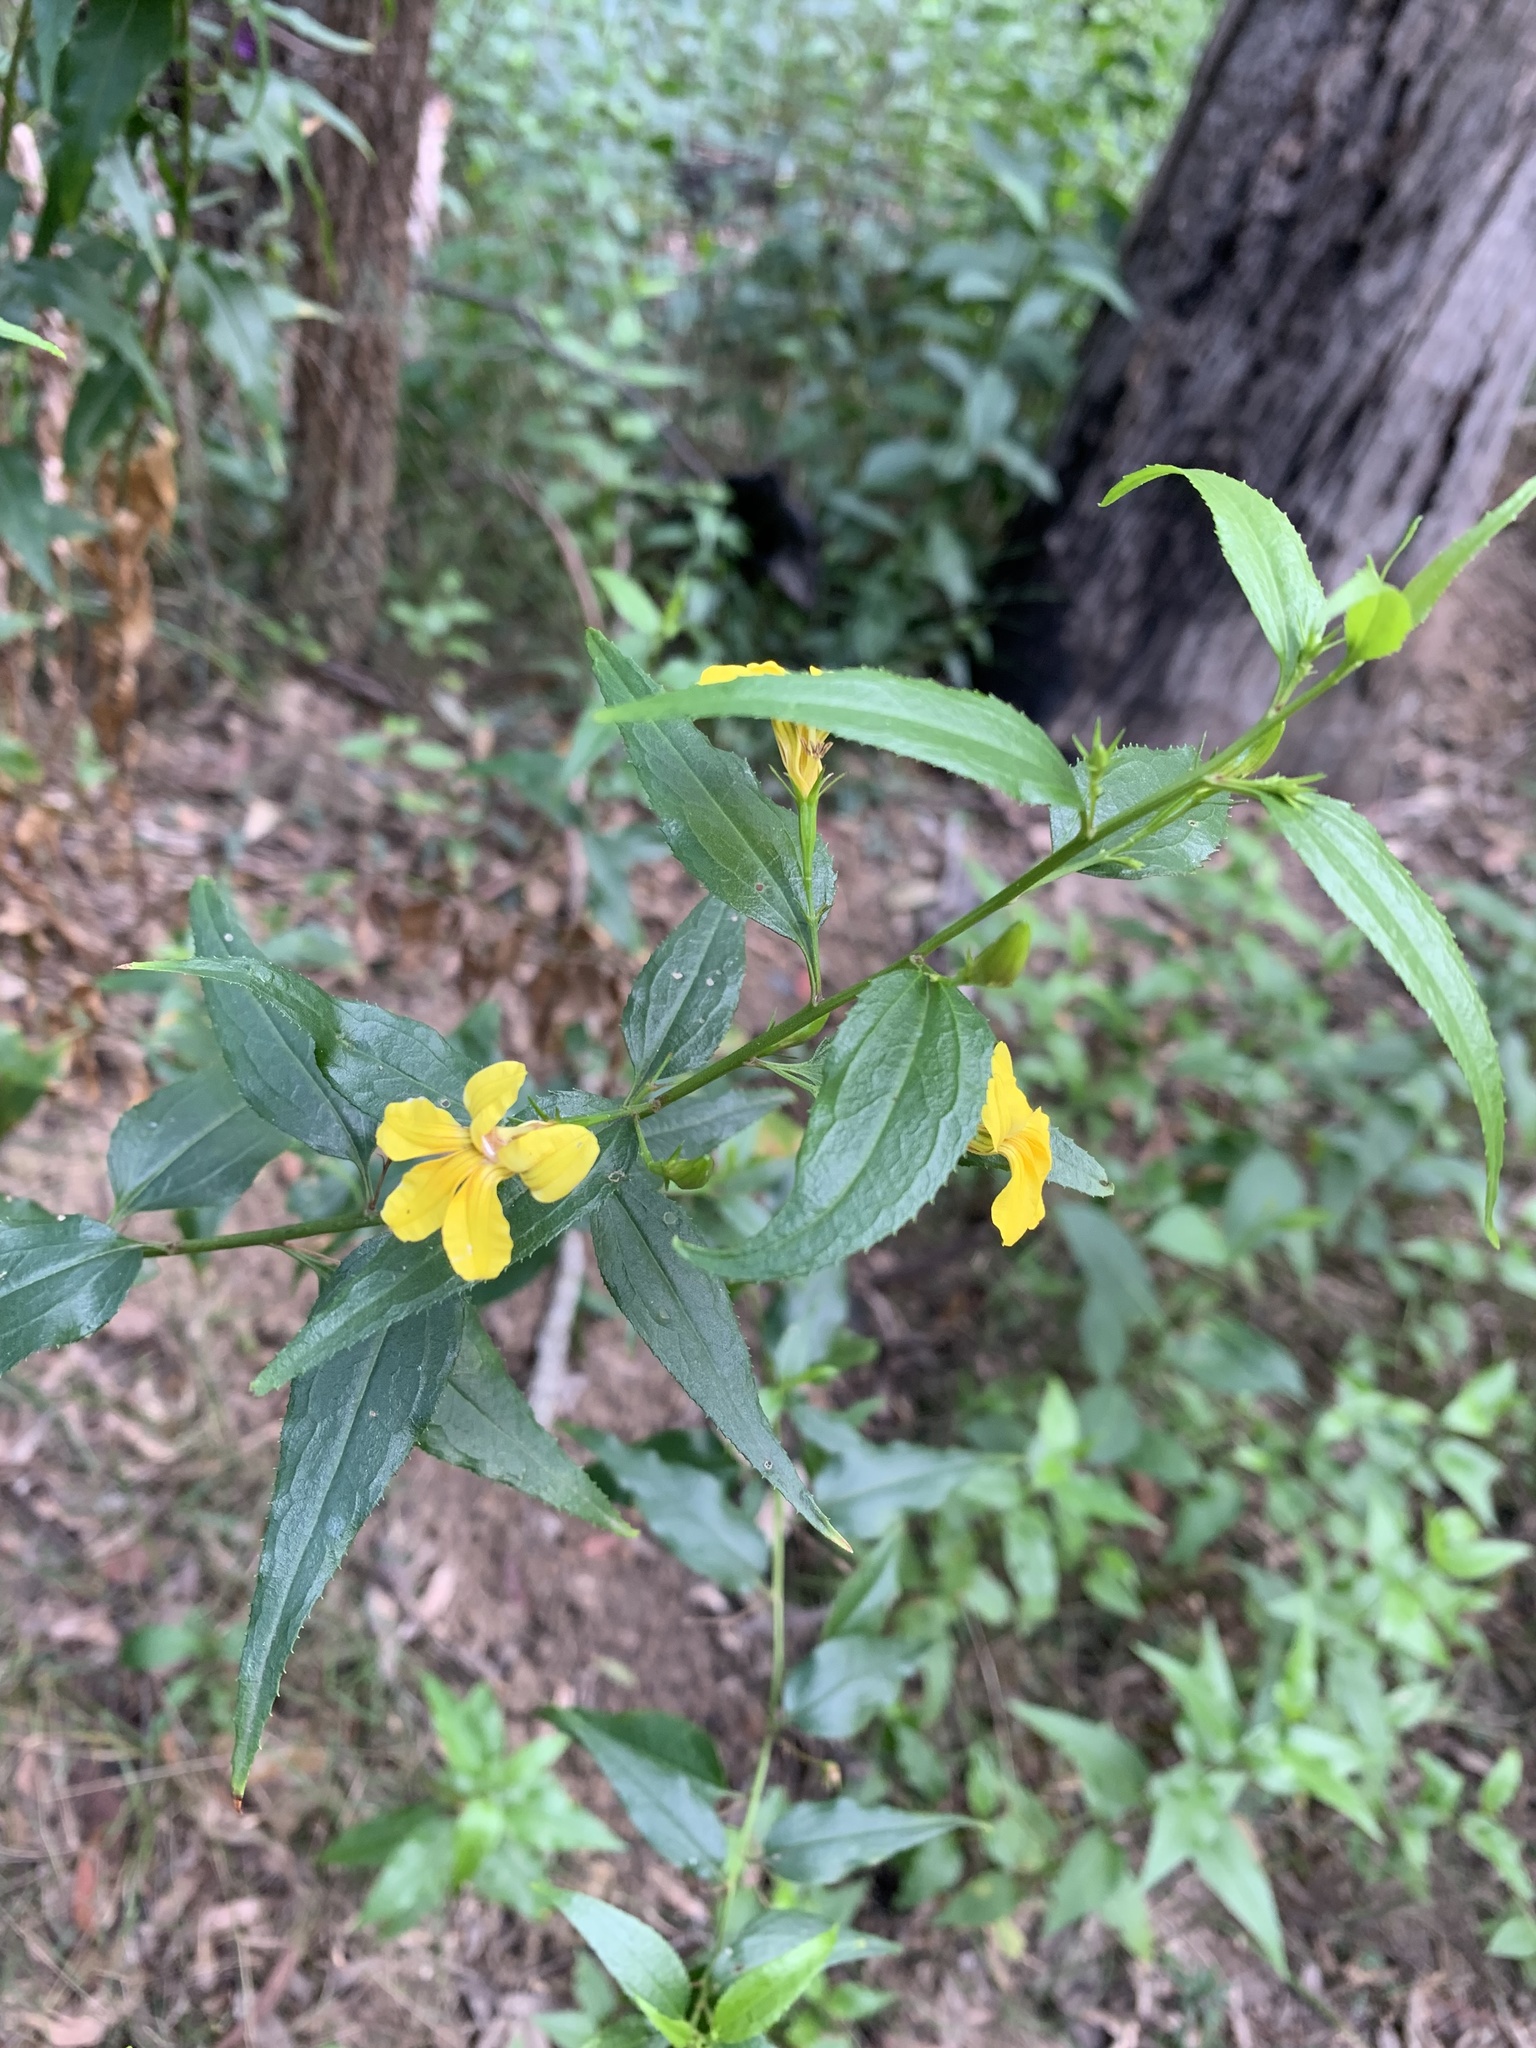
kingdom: Plantae
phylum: Tracheophyta
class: Magnoliopsida
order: Asterales
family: Goodeniaceae
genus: Goodenia
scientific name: Goodenia ovata
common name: Hop goodenia
